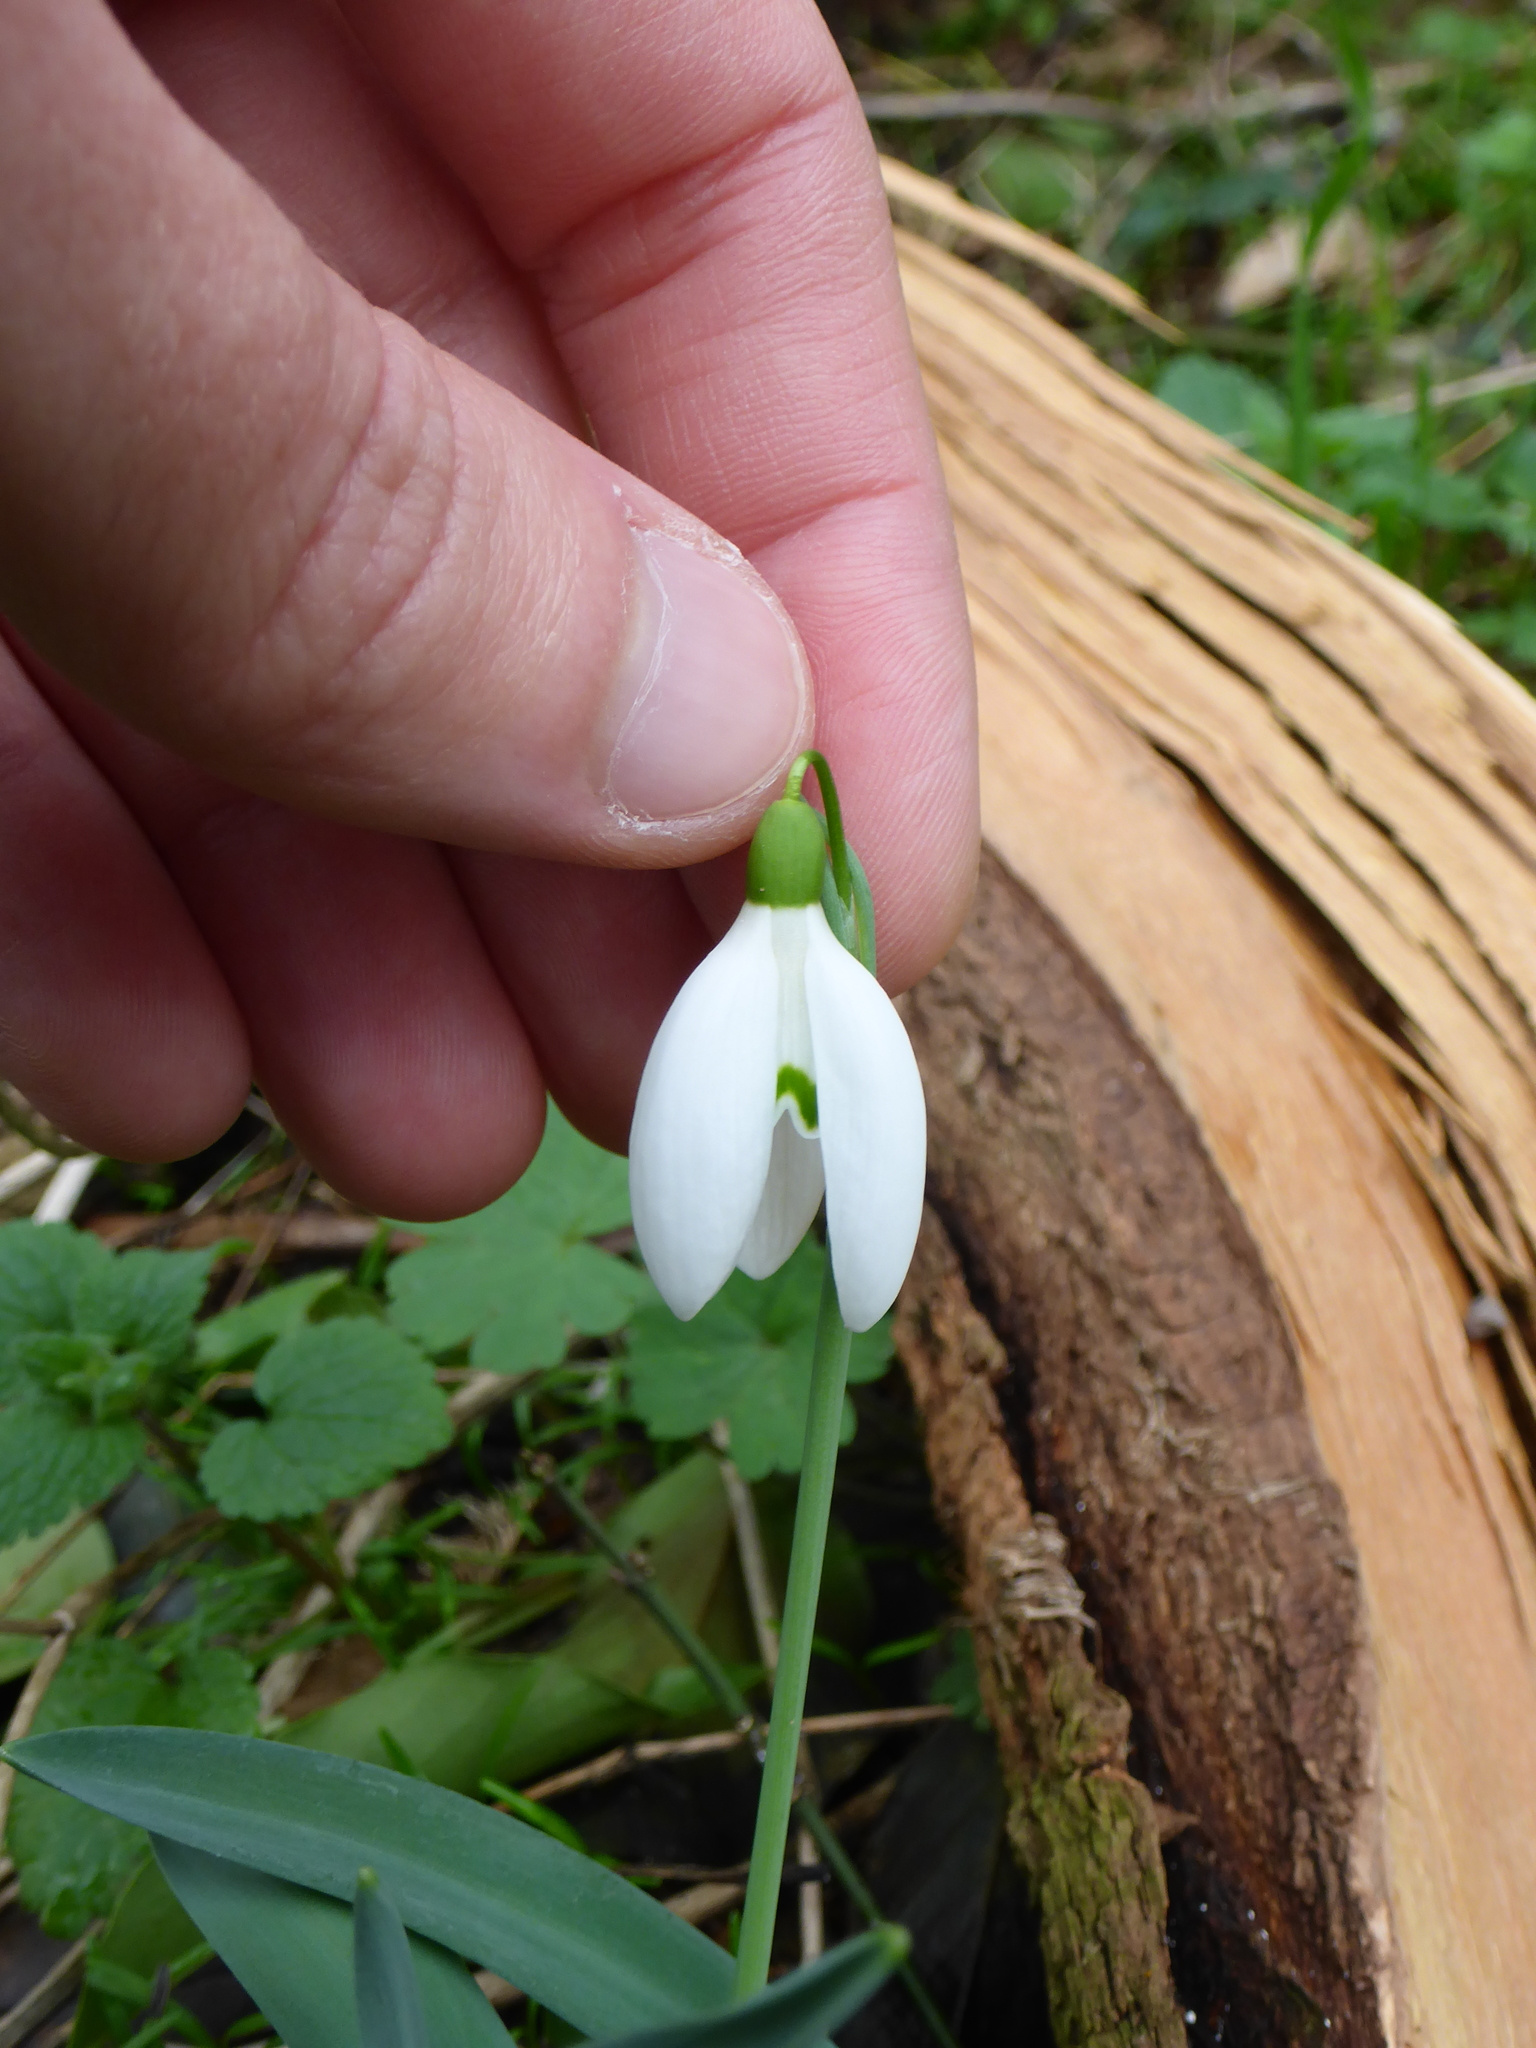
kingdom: Plantae
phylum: Tracheophyta
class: Liliopsida
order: Asparagales
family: Amaryllidaceae
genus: Galanthus
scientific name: Galanthus nivalis
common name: Snowdrop
